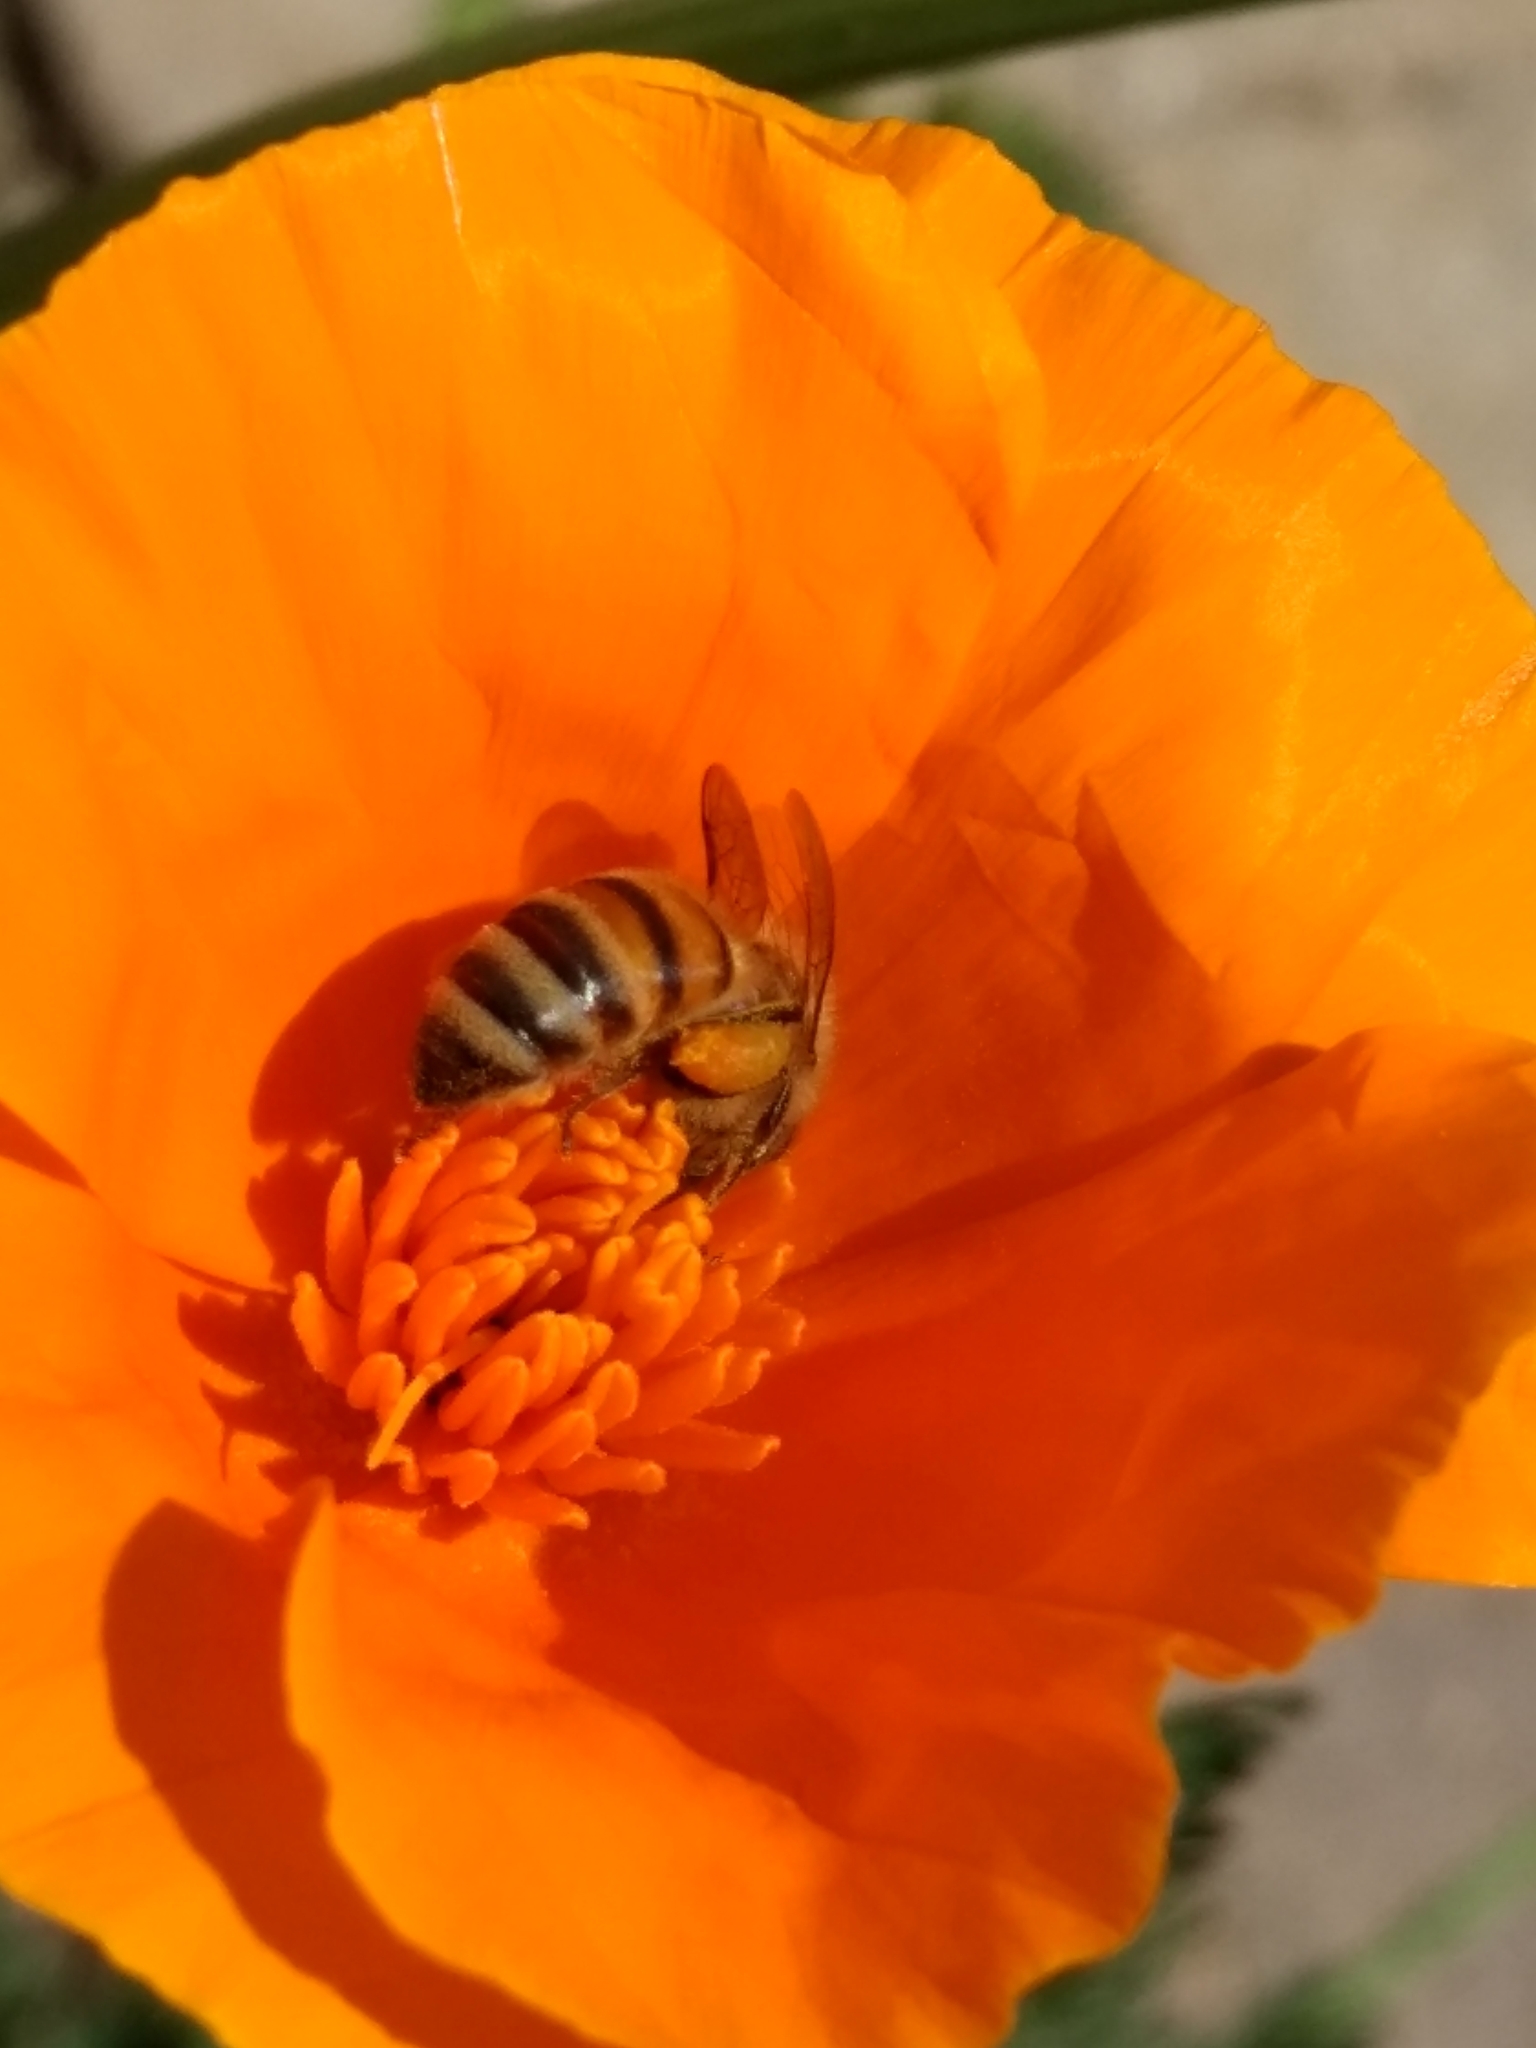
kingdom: Animalia
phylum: Arthropoda
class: Insecta
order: Hymenoptera
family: Apidae
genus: Apis
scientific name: Apis mellifera
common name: Honey bee
